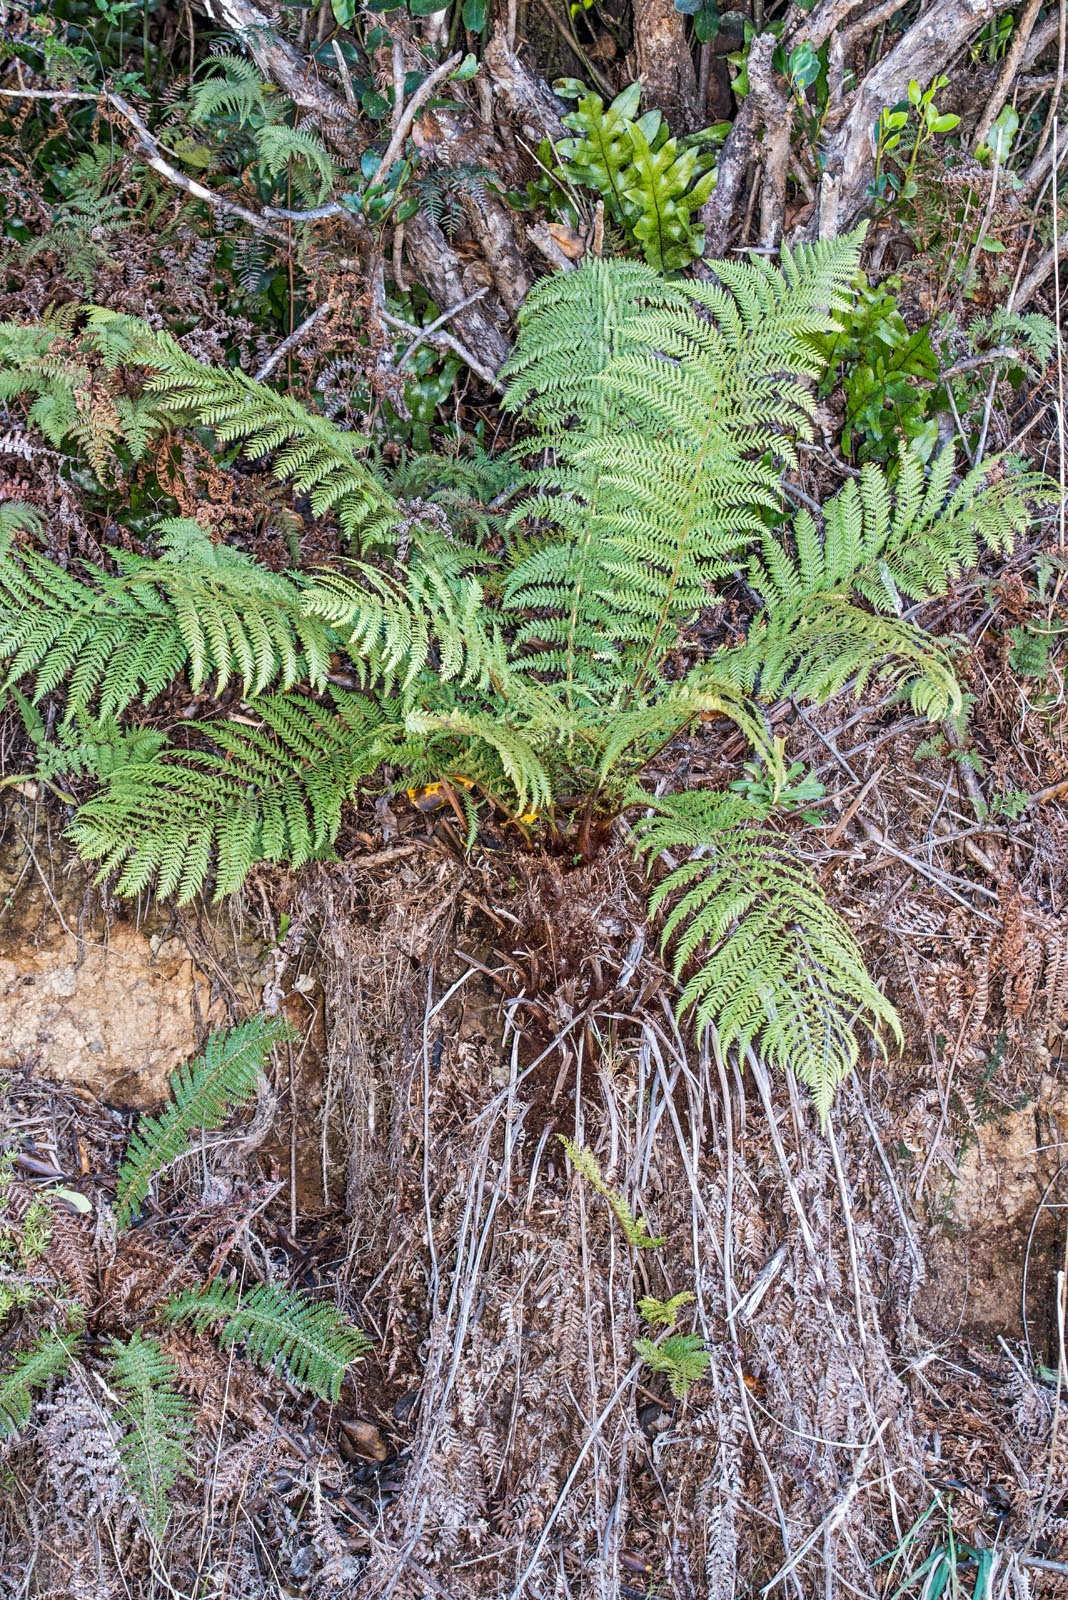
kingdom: Plantae
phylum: Tracheophyta
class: Polypodiopsida
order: Cyatheales
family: Dicksoniaceae
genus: Dicksonia
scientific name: Dicksonia fibrosa
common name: Golden tree fern
